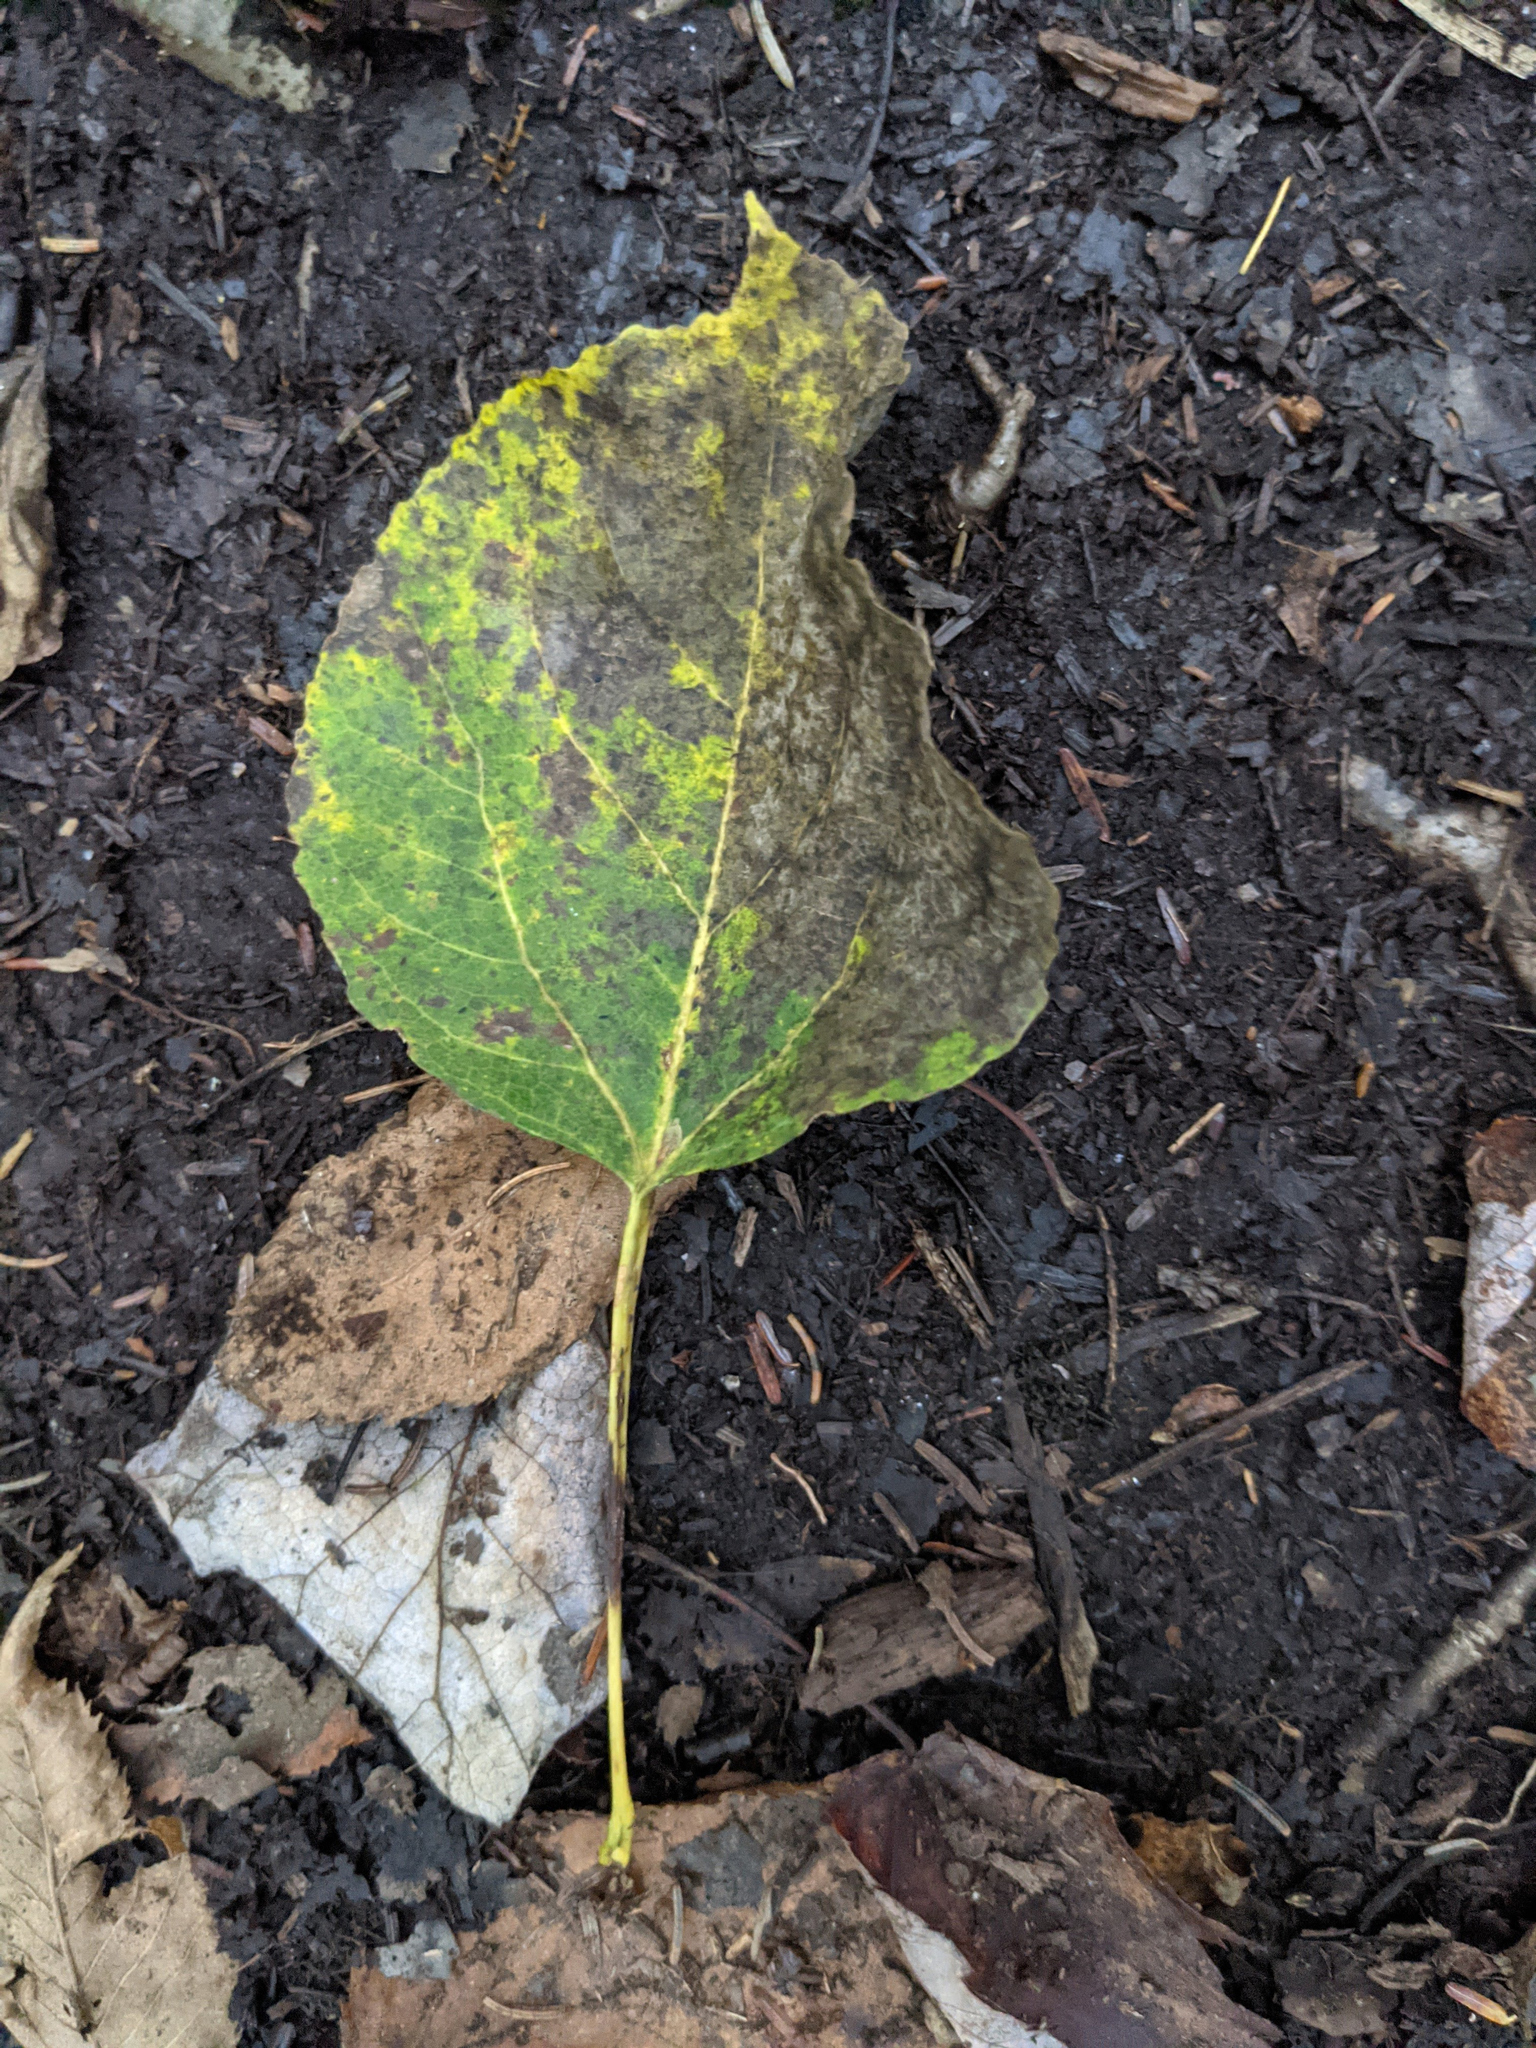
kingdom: Plantae
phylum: Tracheophyta
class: Magnoliopsida
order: Malpighiales
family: Salicaceae
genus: Populus
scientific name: Populus tremuloides
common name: Quaking aspen
